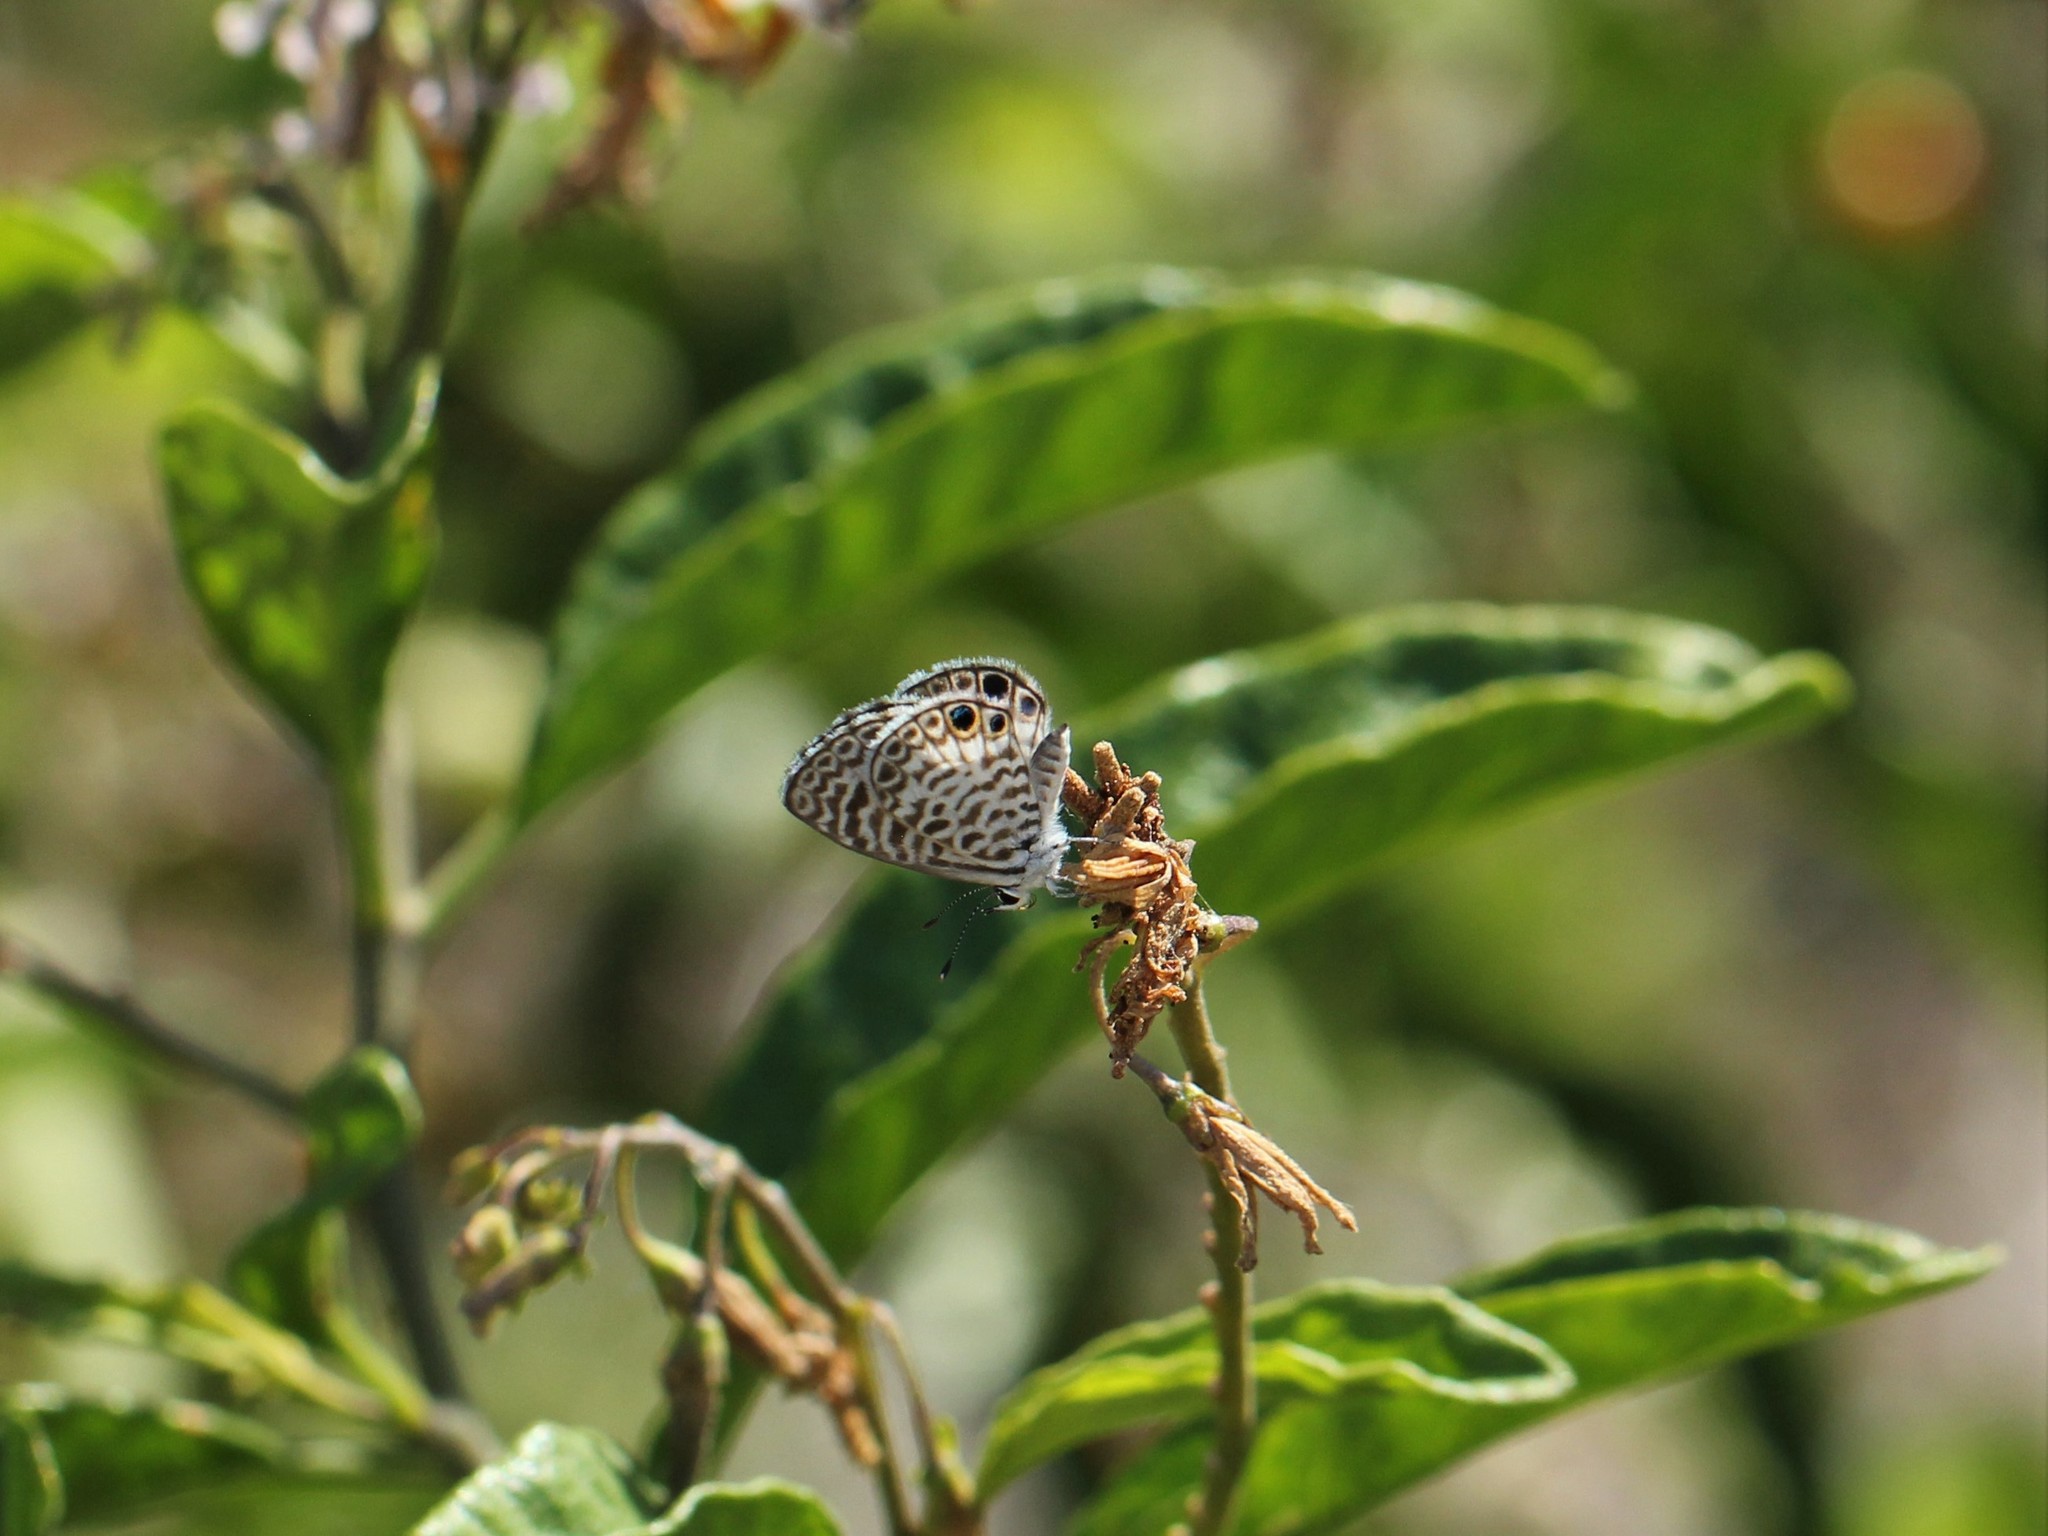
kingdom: Animalia
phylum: Arthropoda
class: Insecta
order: Lepidoptera
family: Lycaenidae
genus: Leptotes
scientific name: Leptotes cassius
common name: Cassius blue
